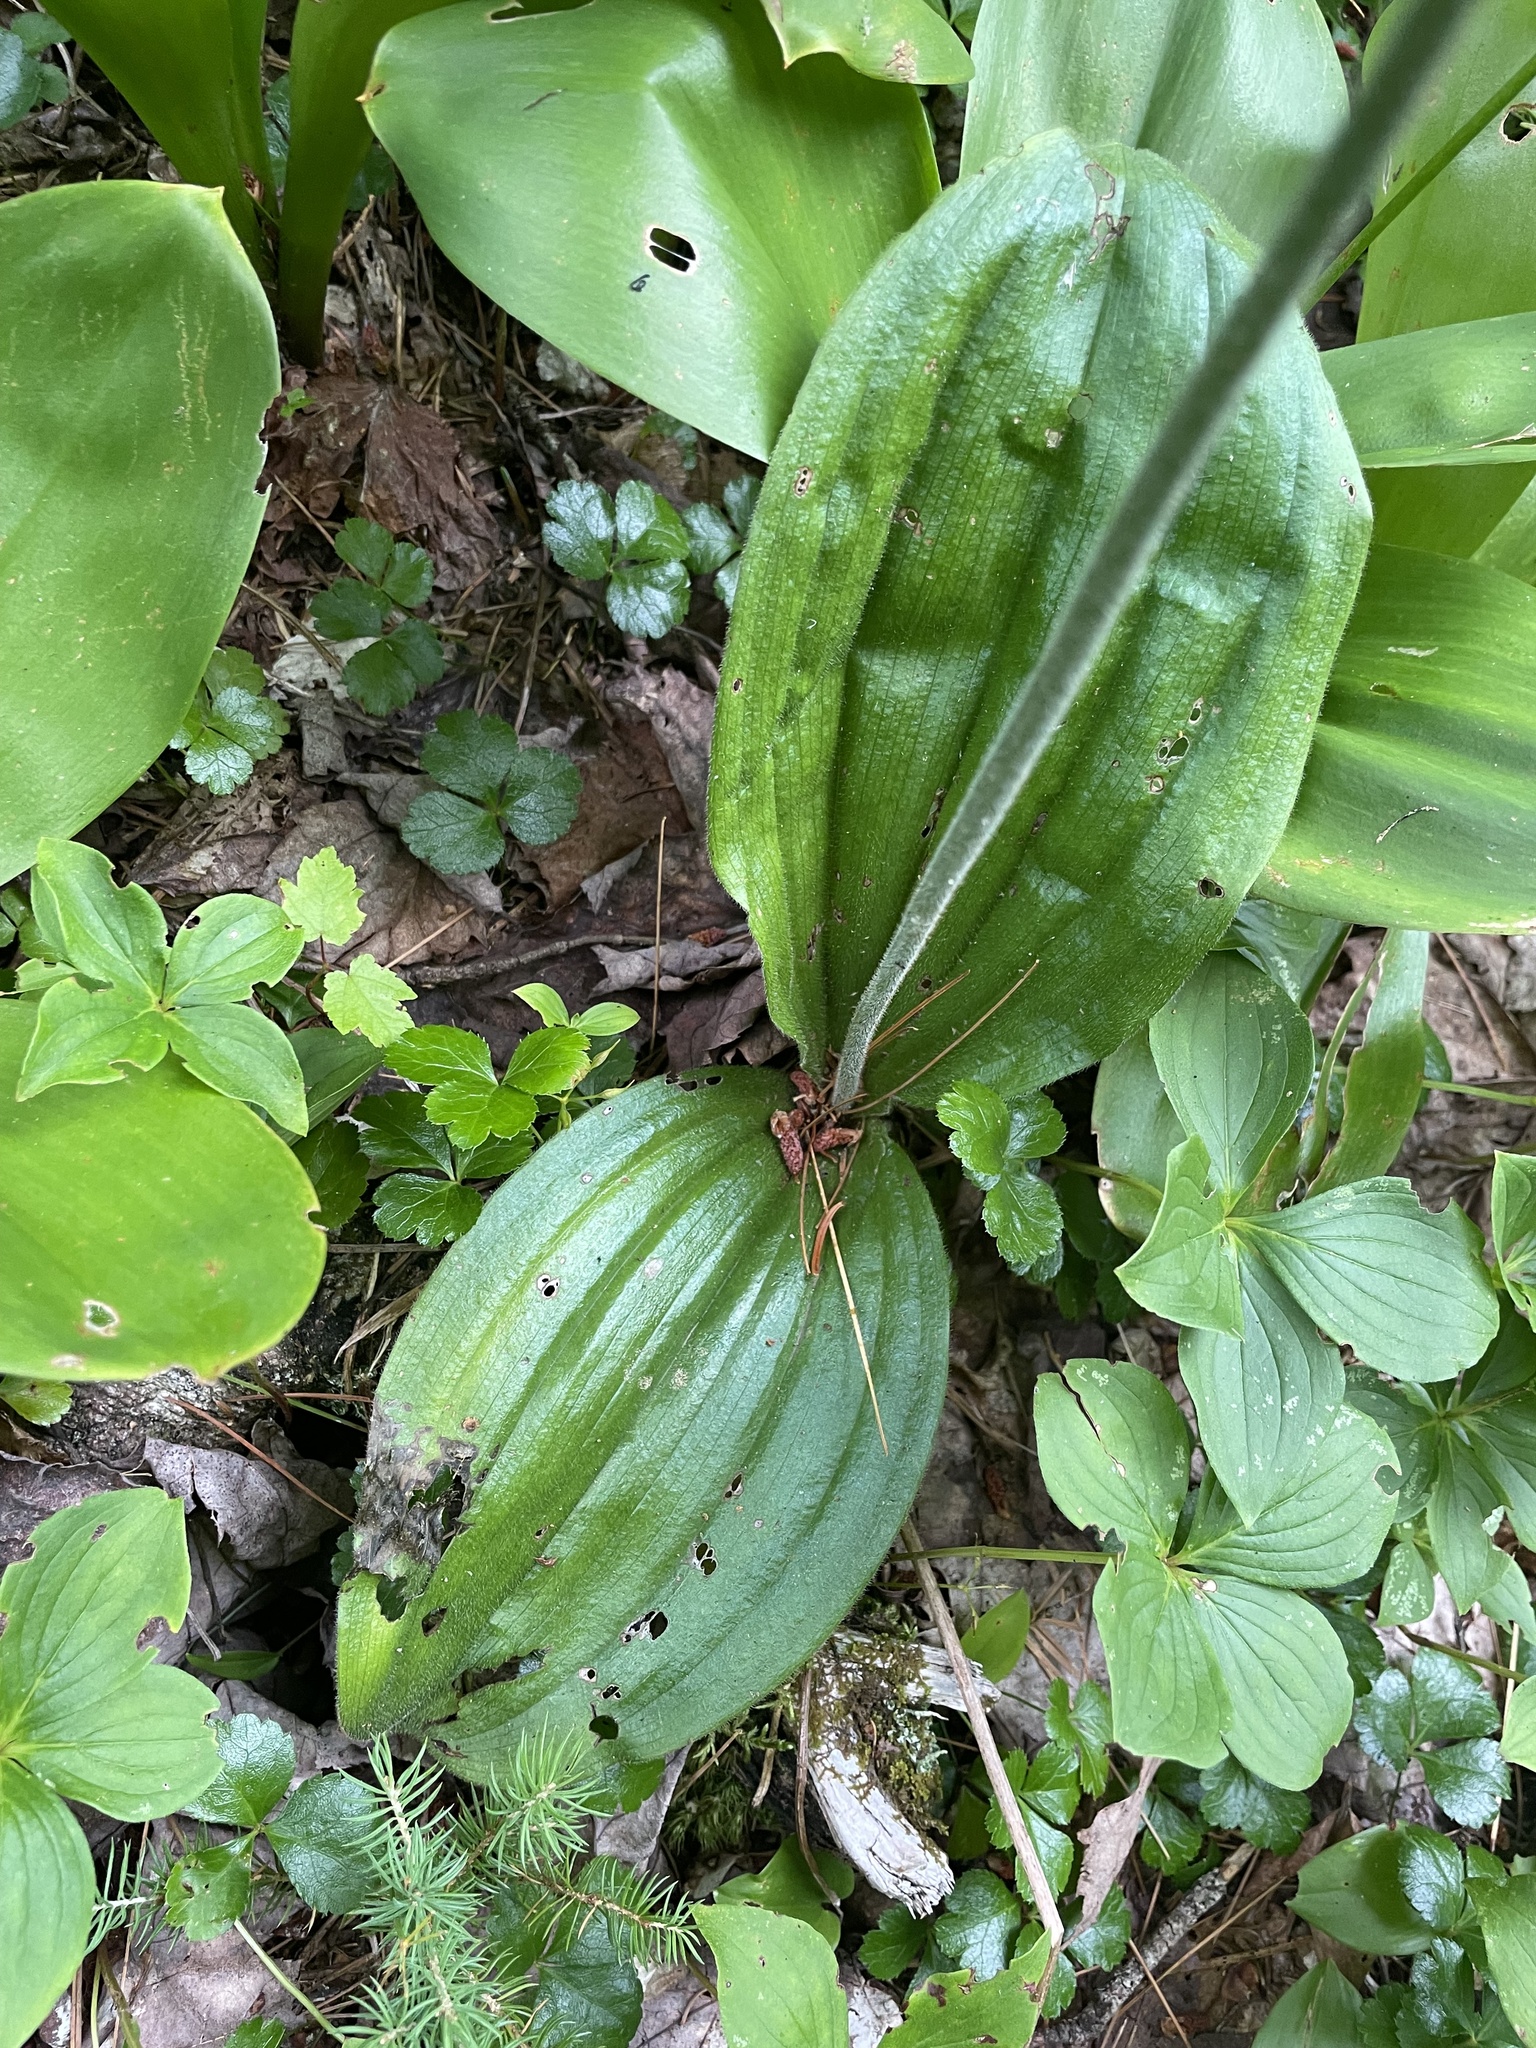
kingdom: Plantae
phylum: Tracheophyta
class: Liliopsida
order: Asparagales
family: Orchidaceae
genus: Cypripedium
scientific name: Cypripedium acaule
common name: Pink lady's-slipper
